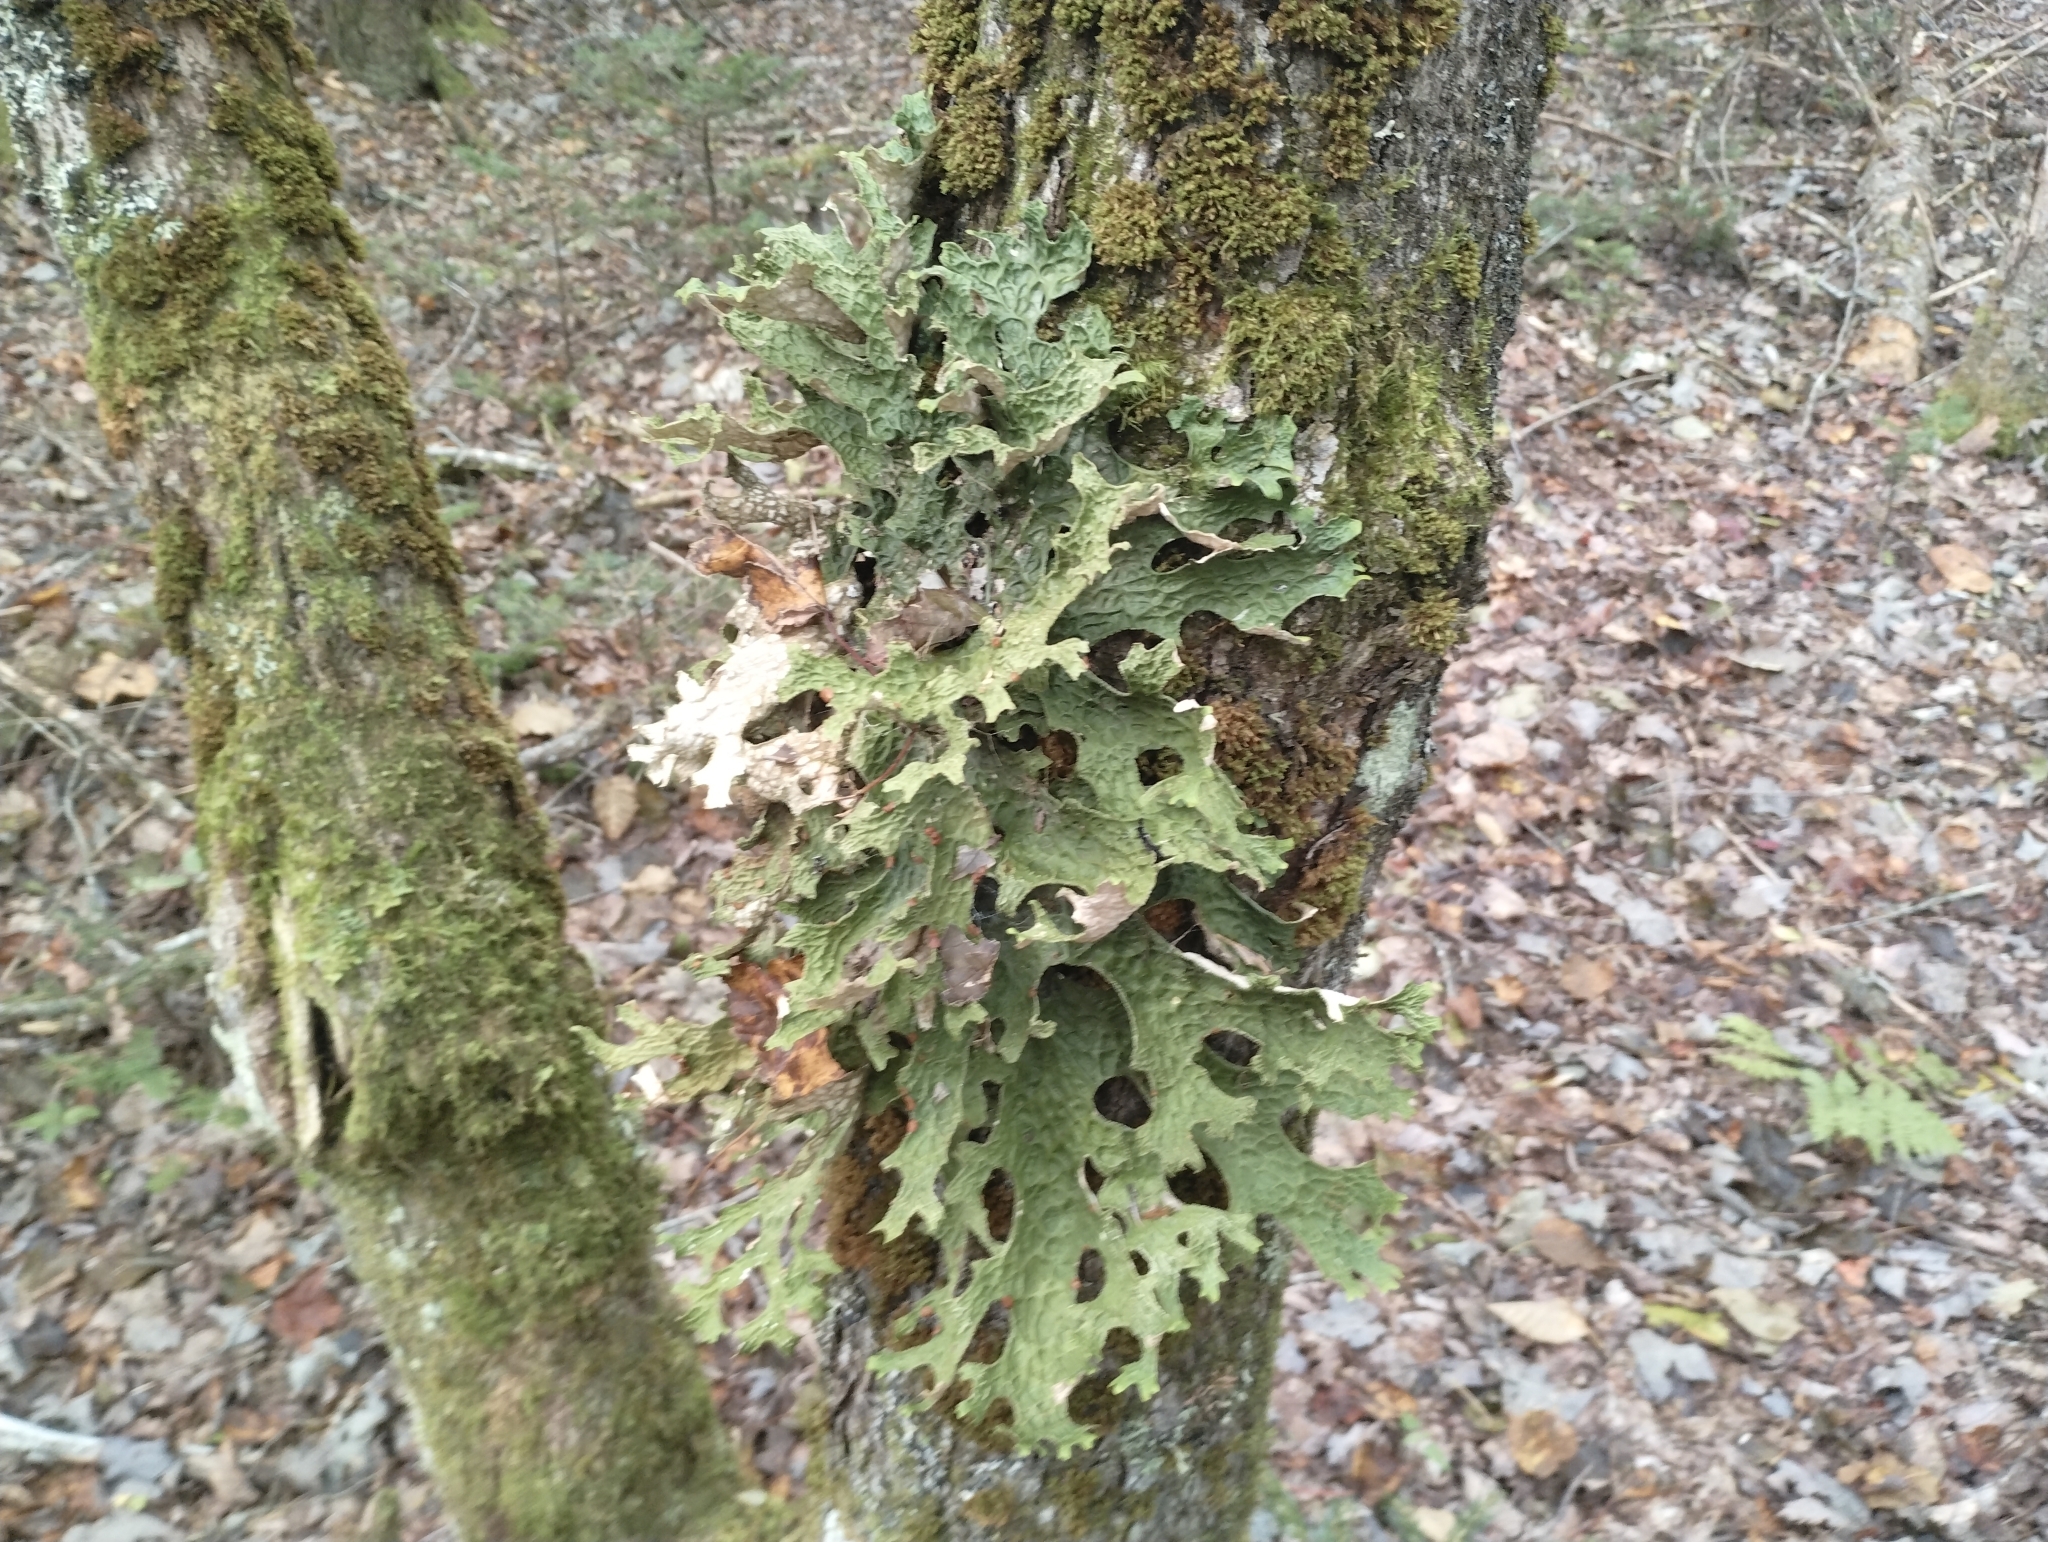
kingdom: Fungi
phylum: Ascomycota
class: Lecanoromycetes
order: Peltigerales
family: Lobariaceae
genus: Lobaria
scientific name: Lobaria pulmonaria
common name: Lungwort
